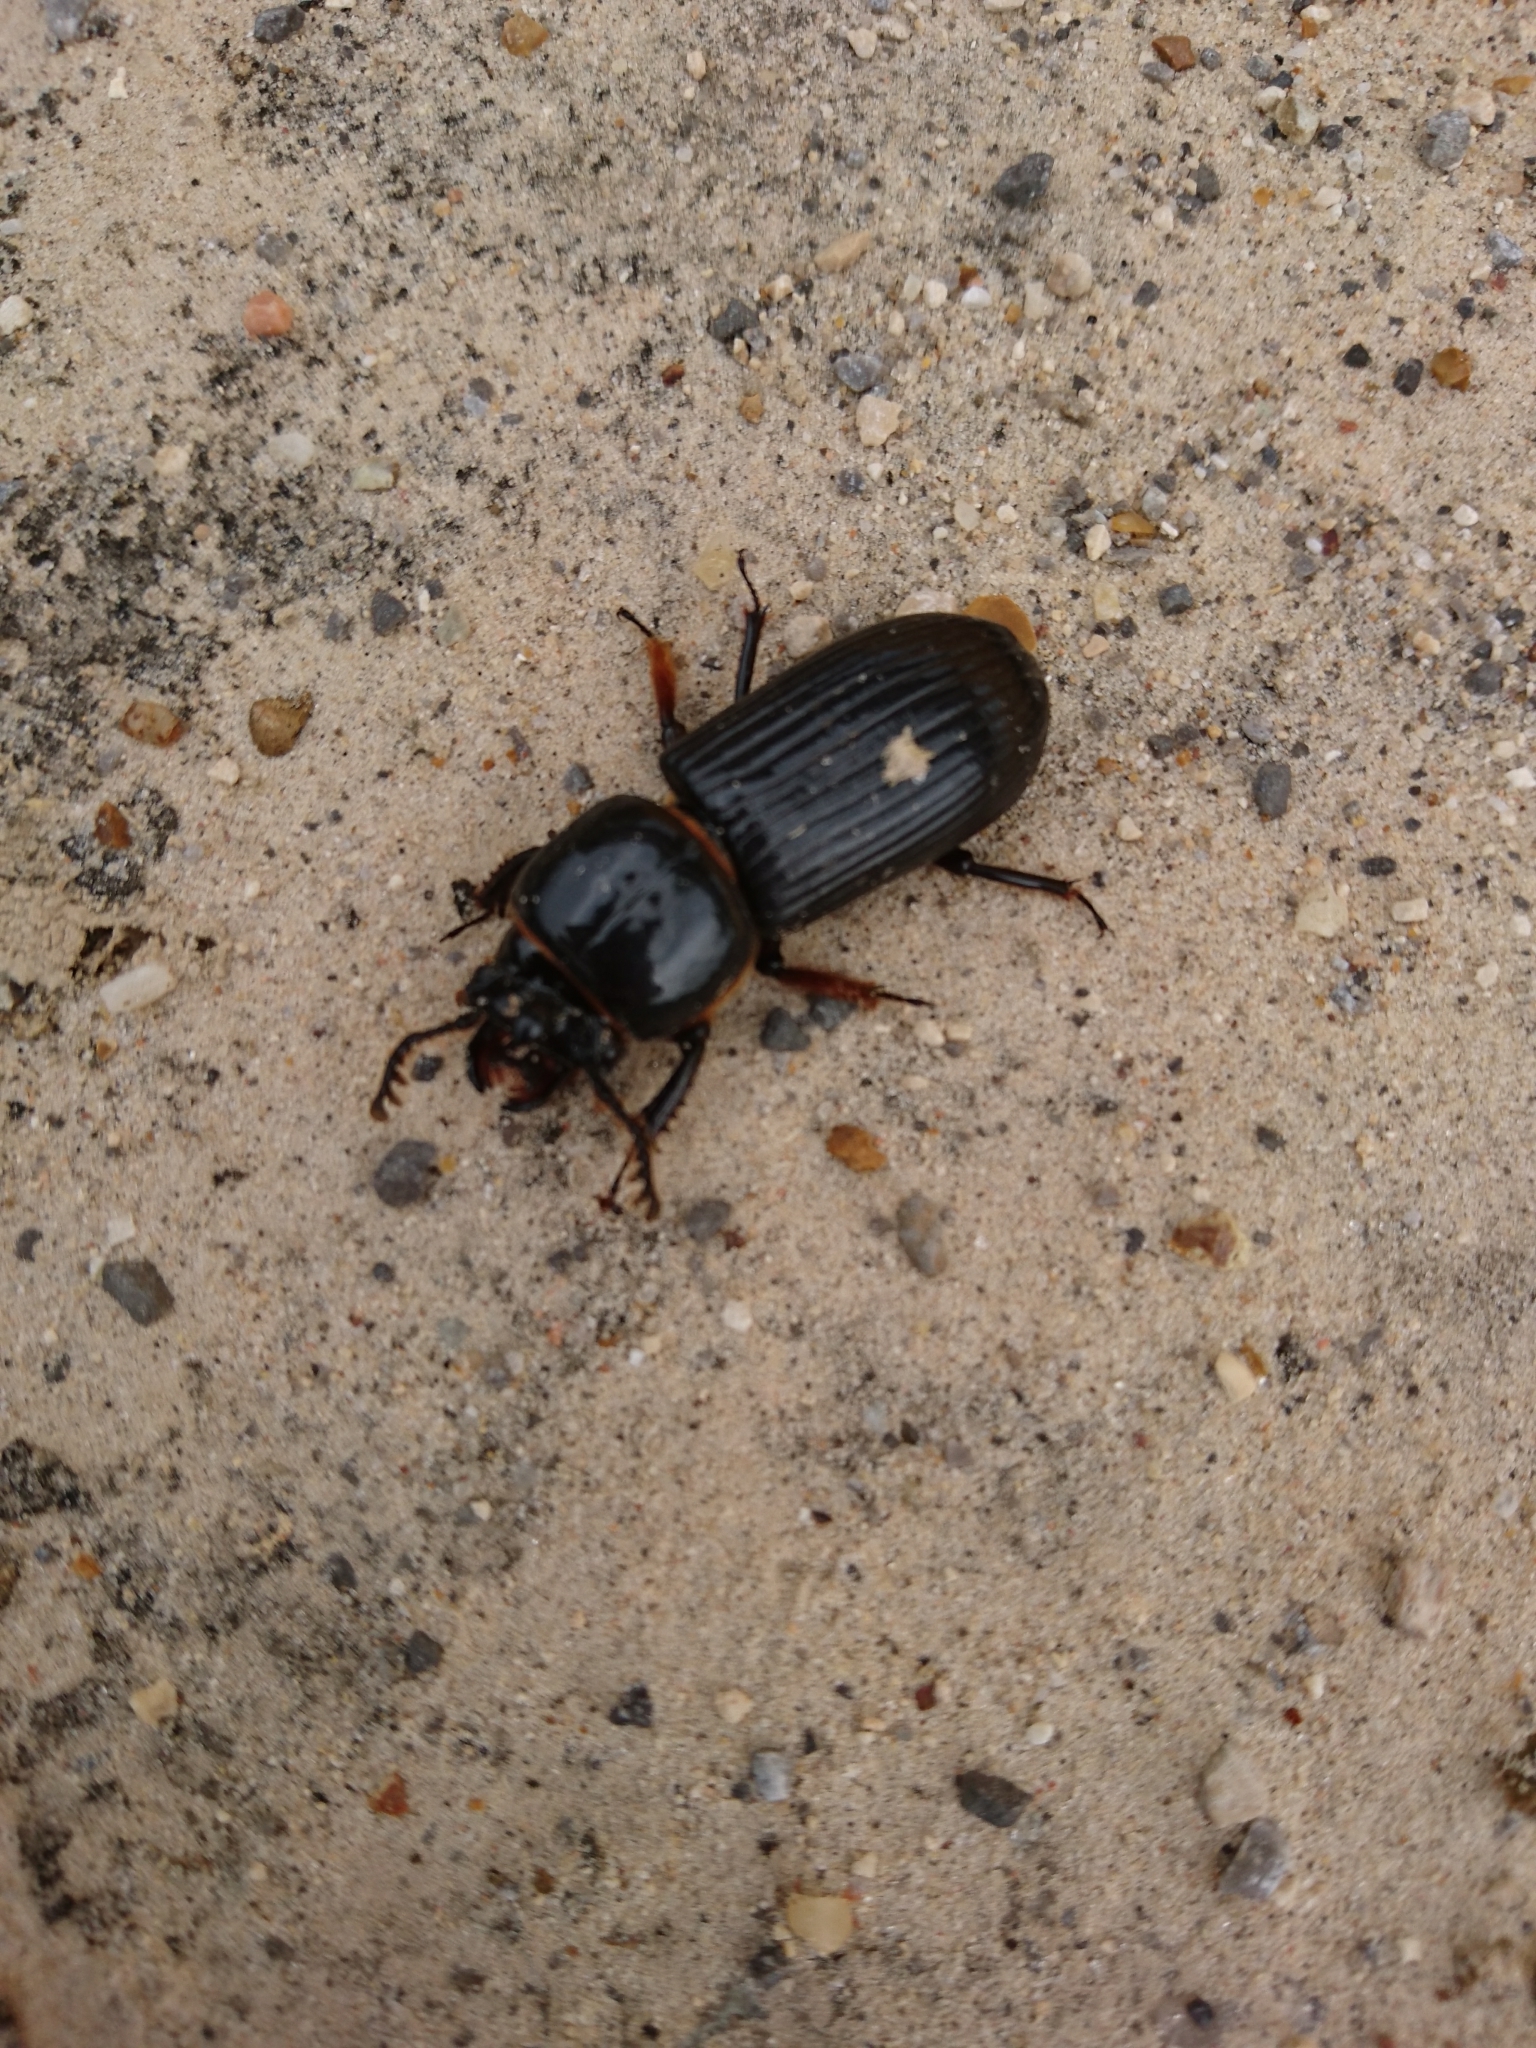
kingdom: Animalia
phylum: Arthropoda
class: Insecta
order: Coleoptera
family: Passalidae
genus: Odontotaenius
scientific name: Odontotaenius disjunctus
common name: Patent leather beetle
